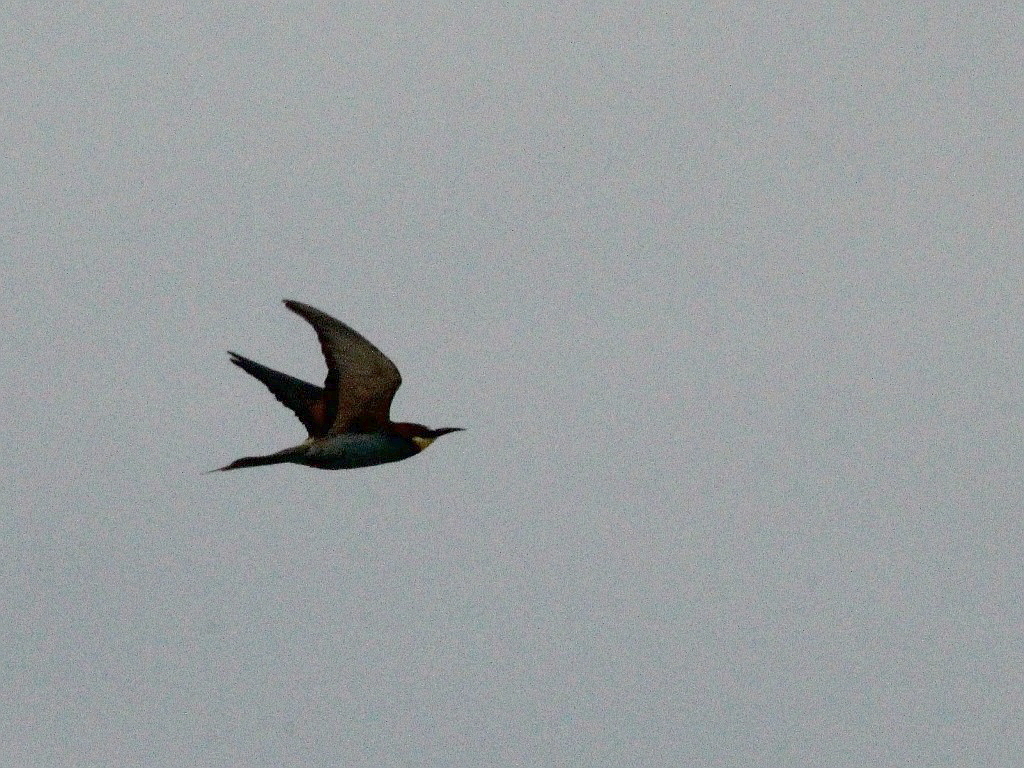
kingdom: Animalia
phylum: Chordata
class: Aves
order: Coraciiformes
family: Meropidae
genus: Merops
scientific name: Merops apiaster
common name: European bee-eater
